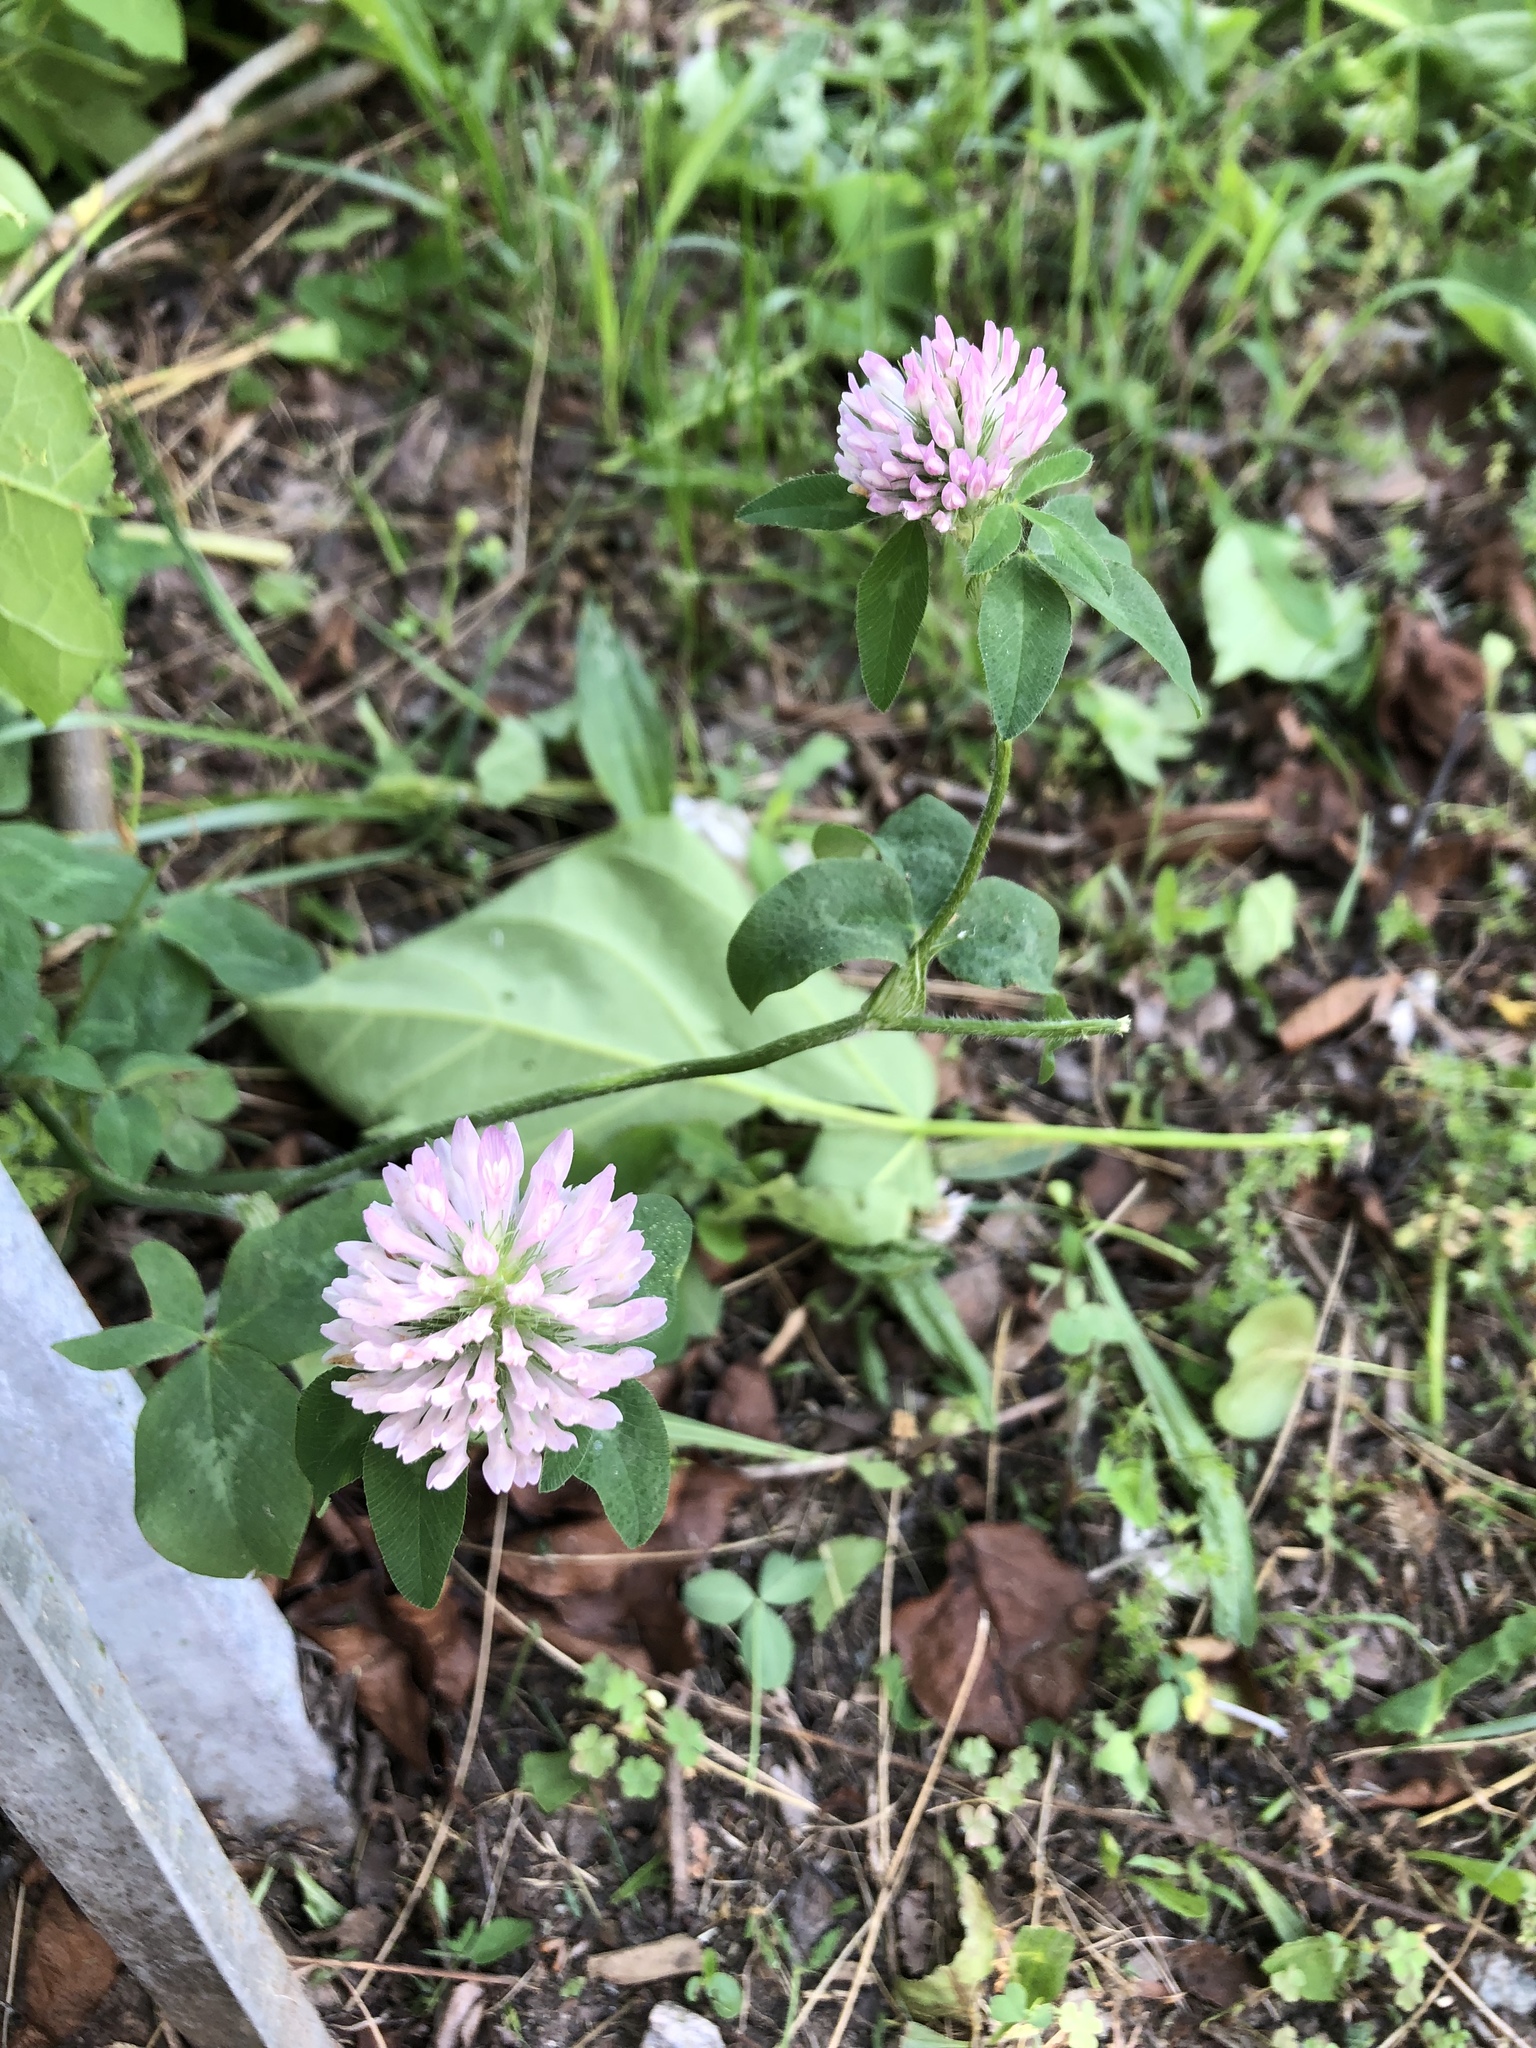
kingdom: Plantae
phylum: Tracheophyta
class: Magnoliopsida
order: Fabales
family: Fabaceae
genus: Trifolium
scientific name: Trifolium pratense
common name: Red clover
